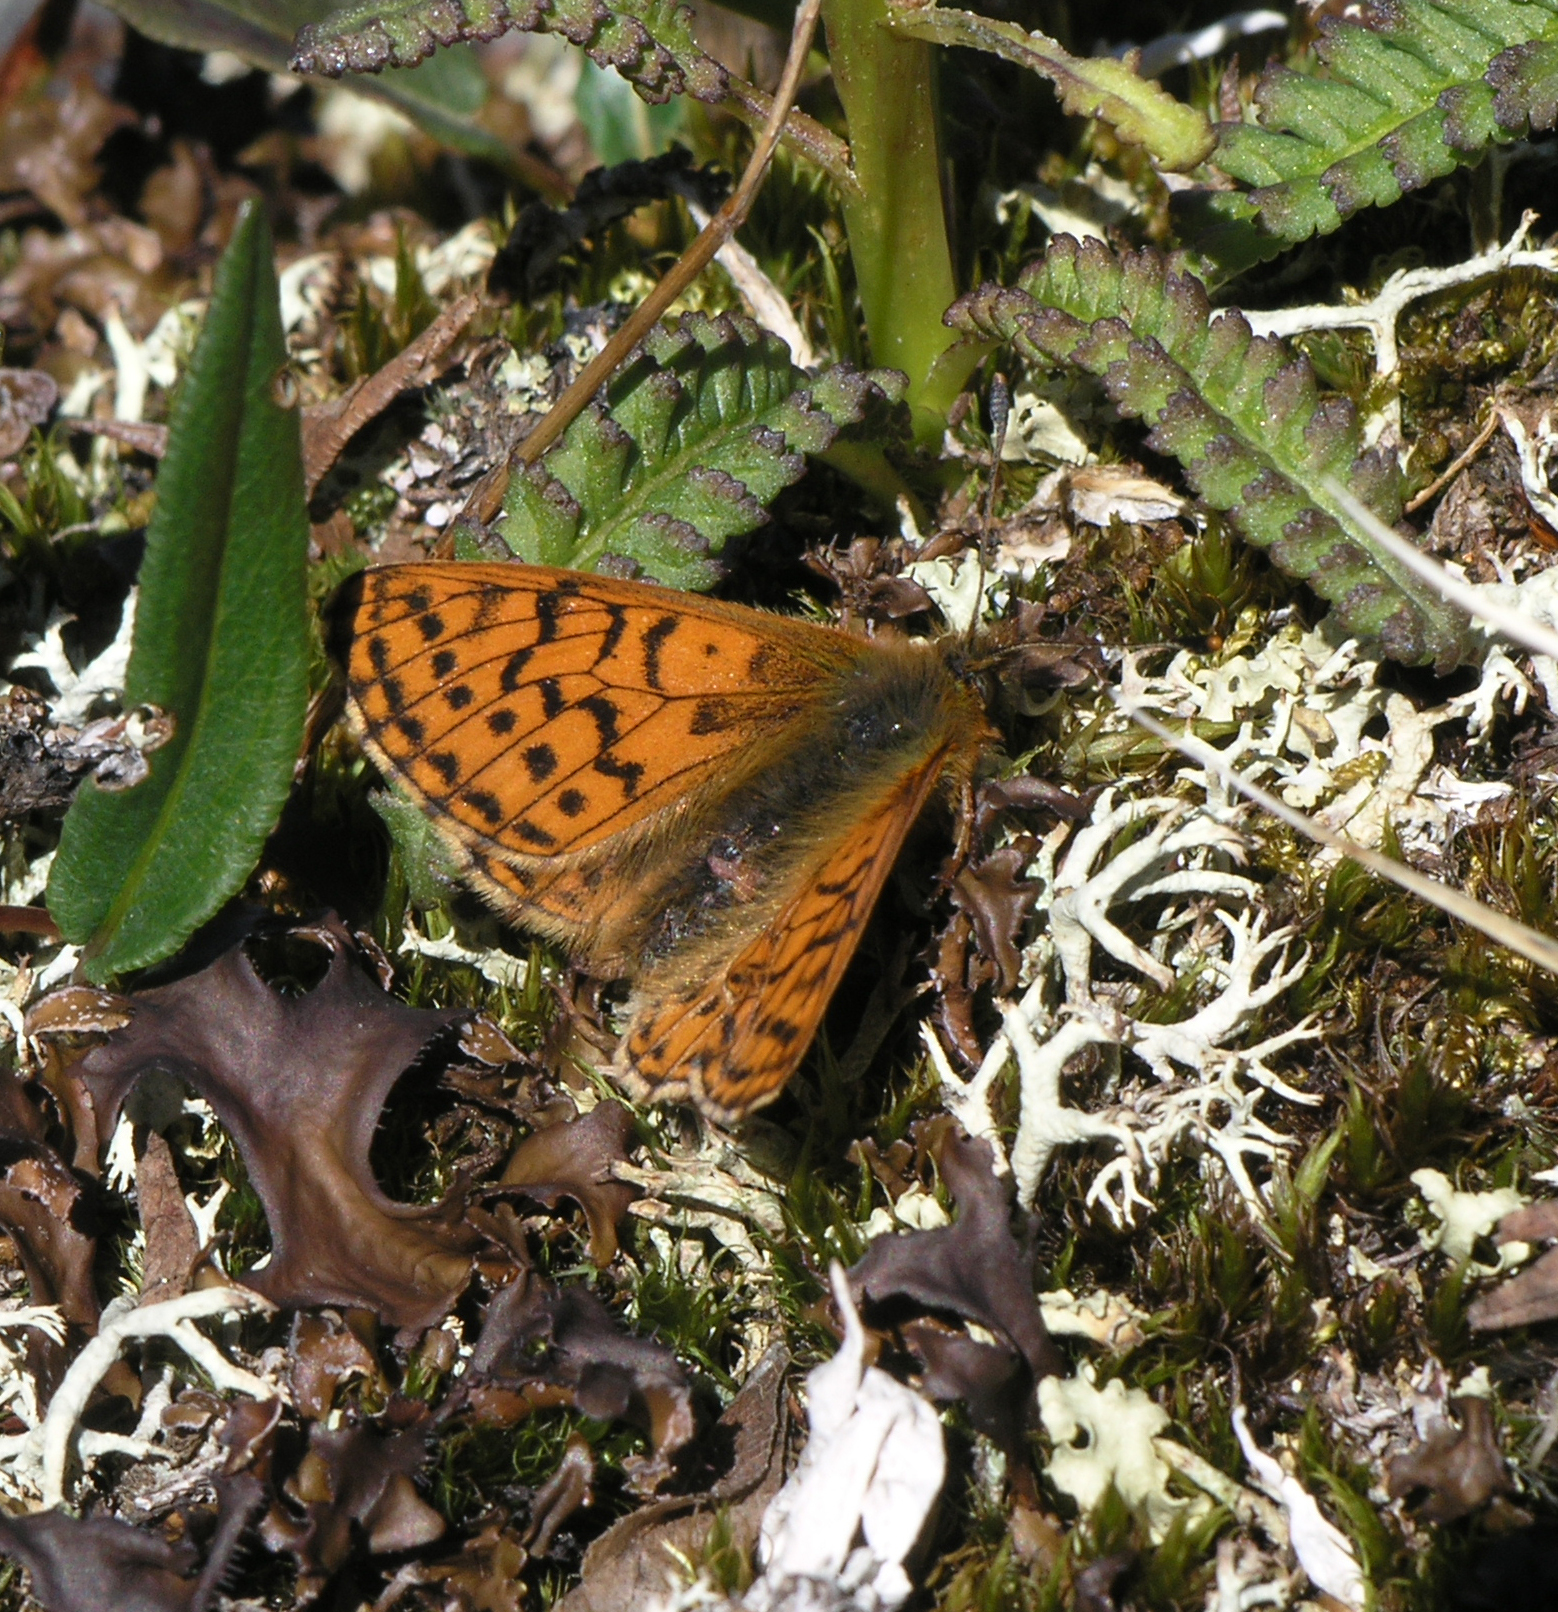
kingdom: Animalia
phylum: Arthropoda
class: Insecta
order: Lepidoptera
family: Nymphalidae
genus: Boloria
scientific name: Boloria napaea
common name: Mountain fritillary
